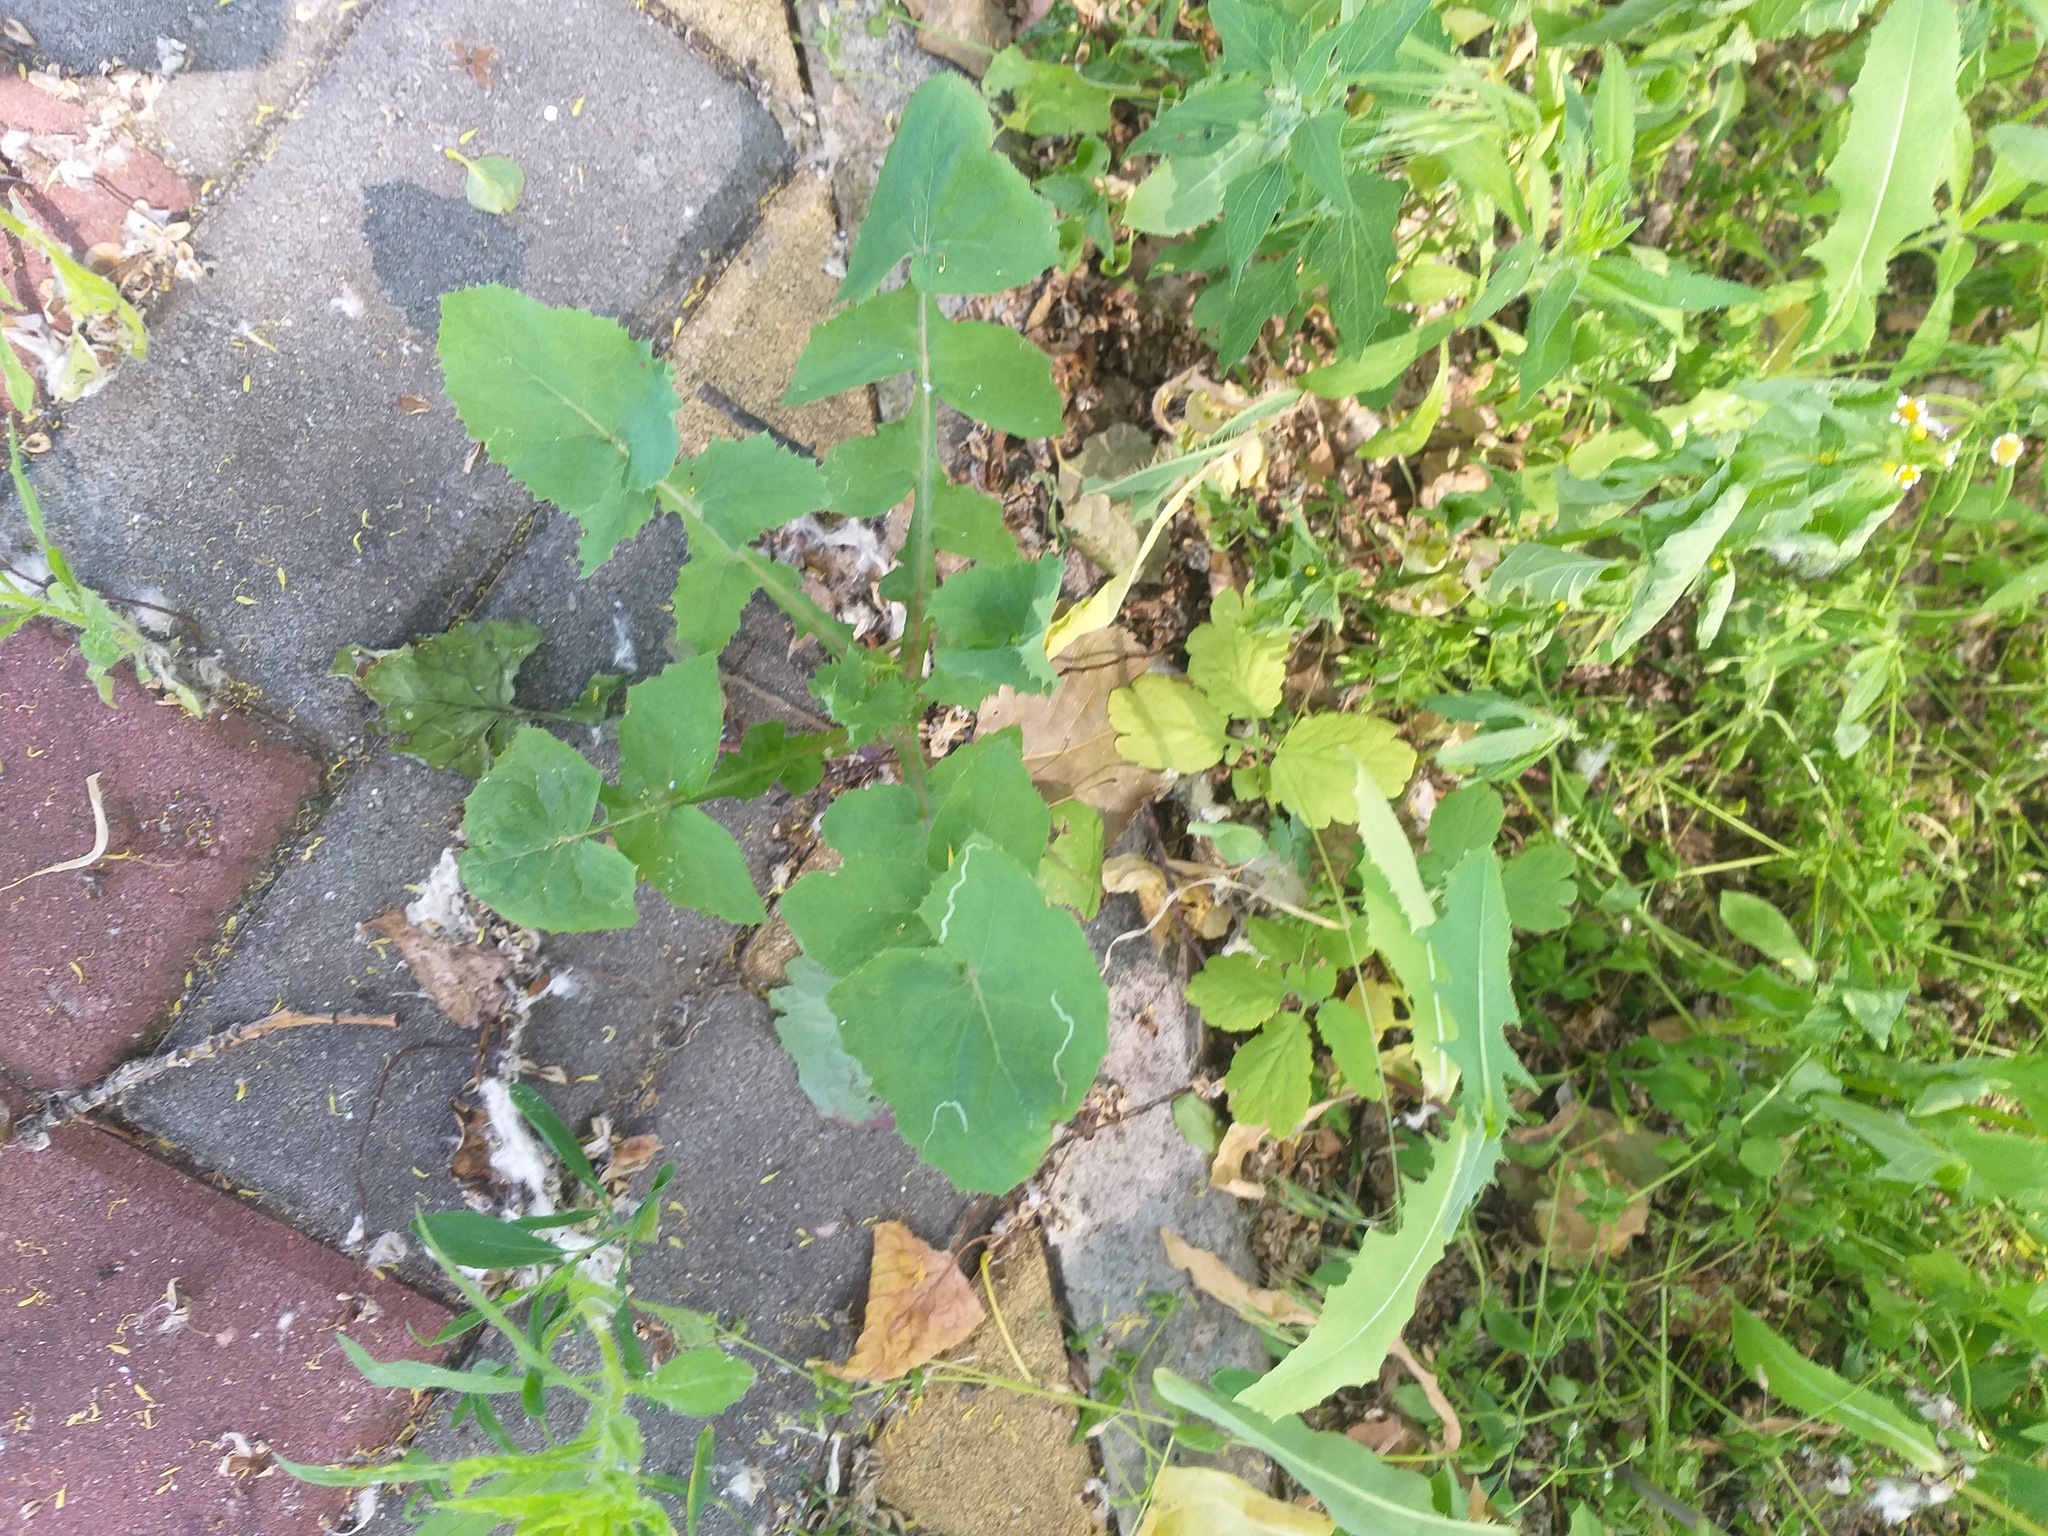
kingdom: Plantae
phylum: Tracheophyta
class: Magnoliopsida
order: Asterales
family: Asteraceae
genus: Sonchus
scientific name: Sonchus oleraceus
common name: Common sowthistle
